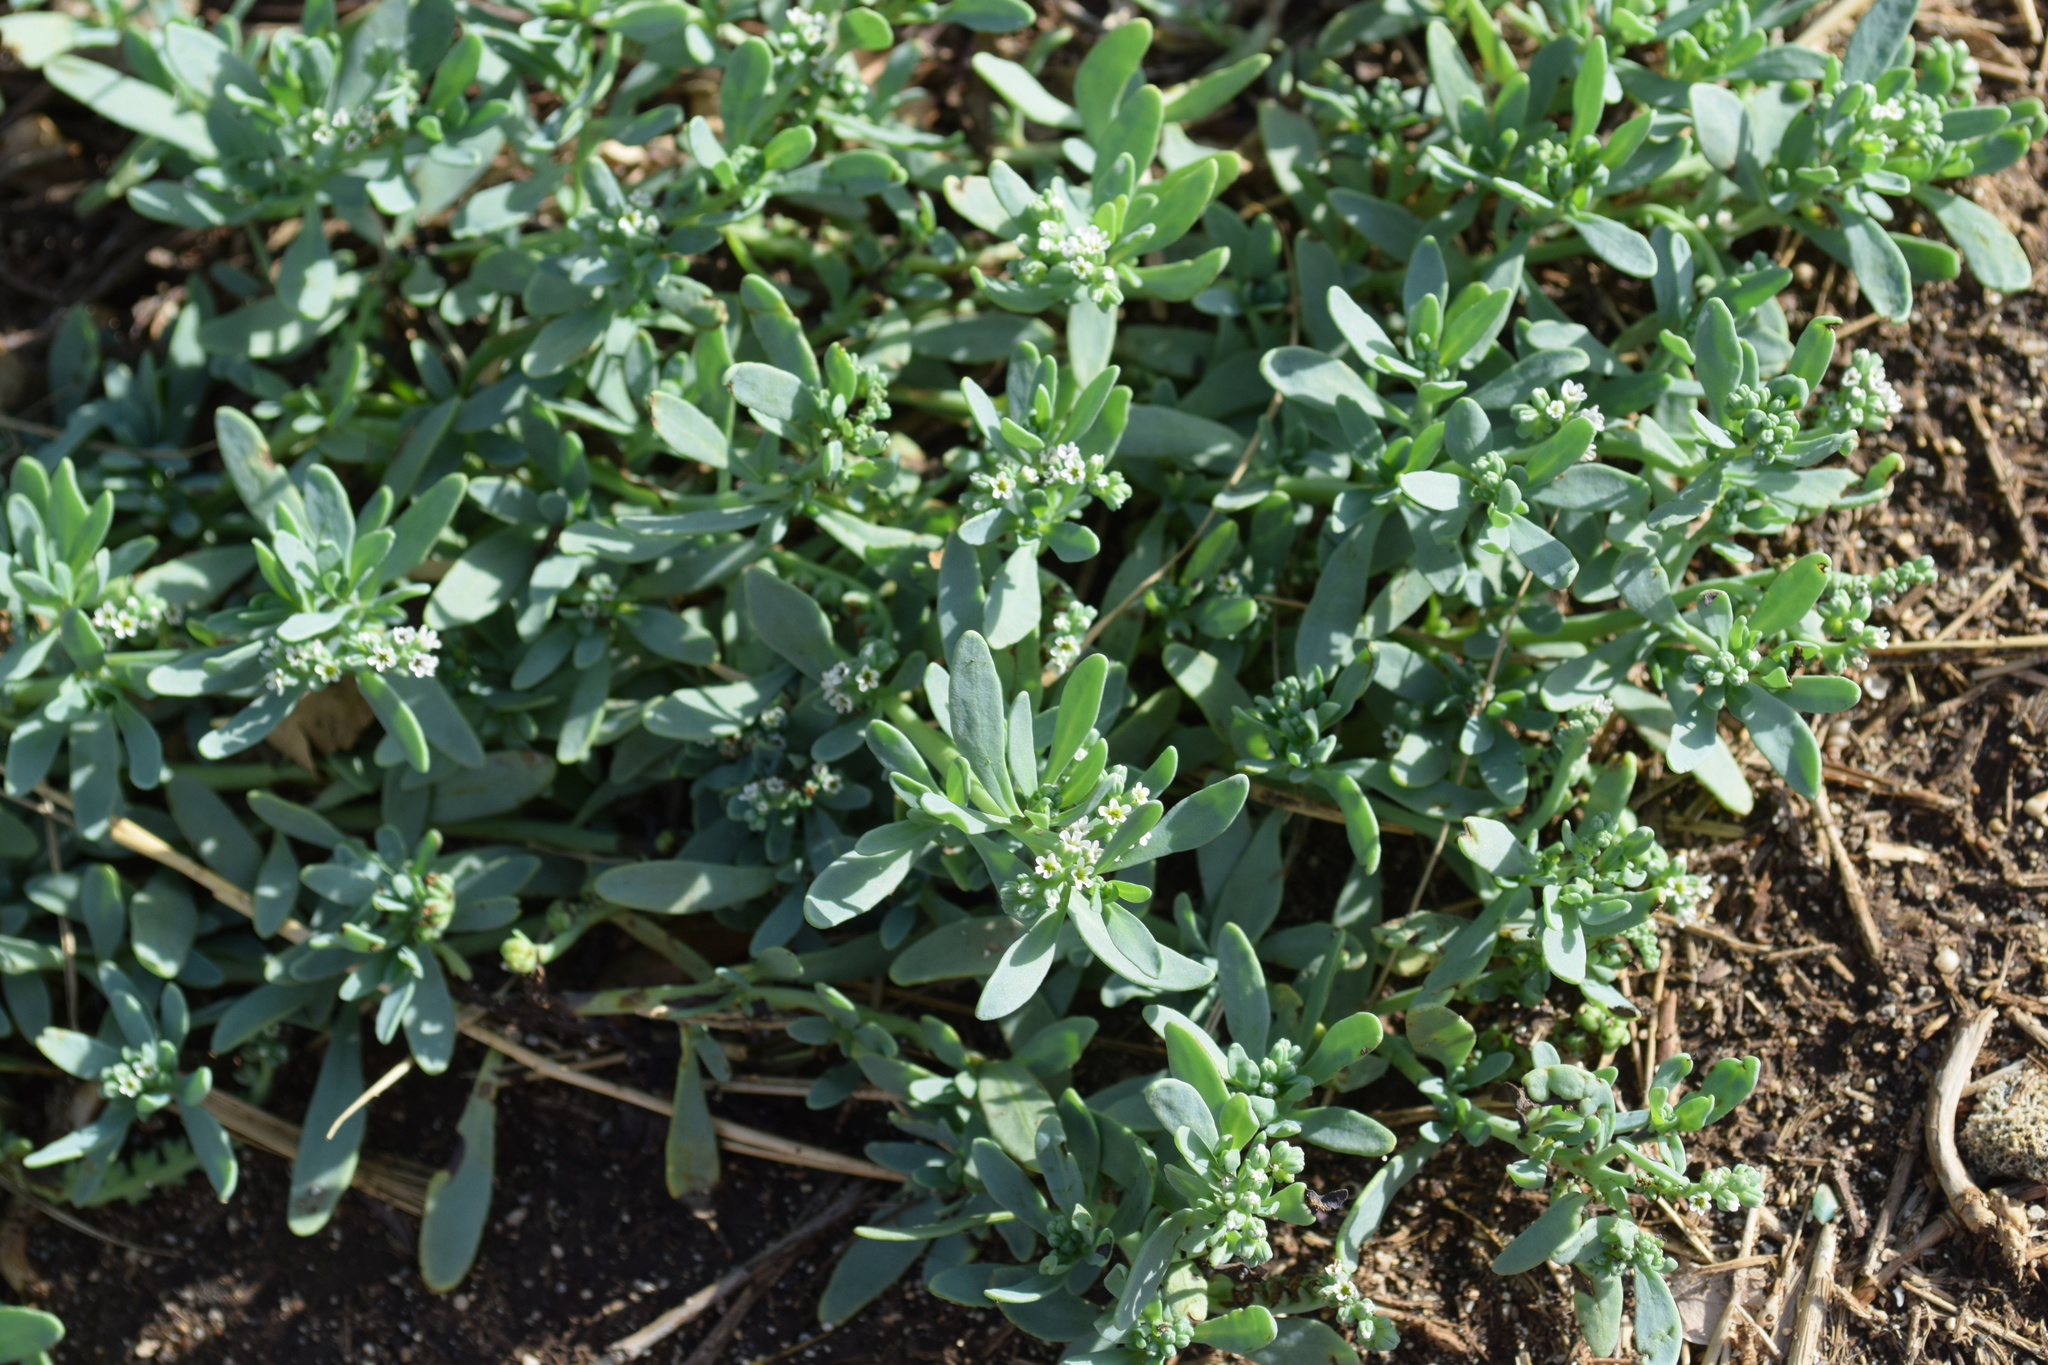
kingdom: Plantae
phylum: Tracheophyta
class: Magnoliopsida
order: Boraginales
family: Heliotropiaceae
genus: Heliotropium
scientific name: Heliotropium curassavicum
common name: Seaside heliotrope
